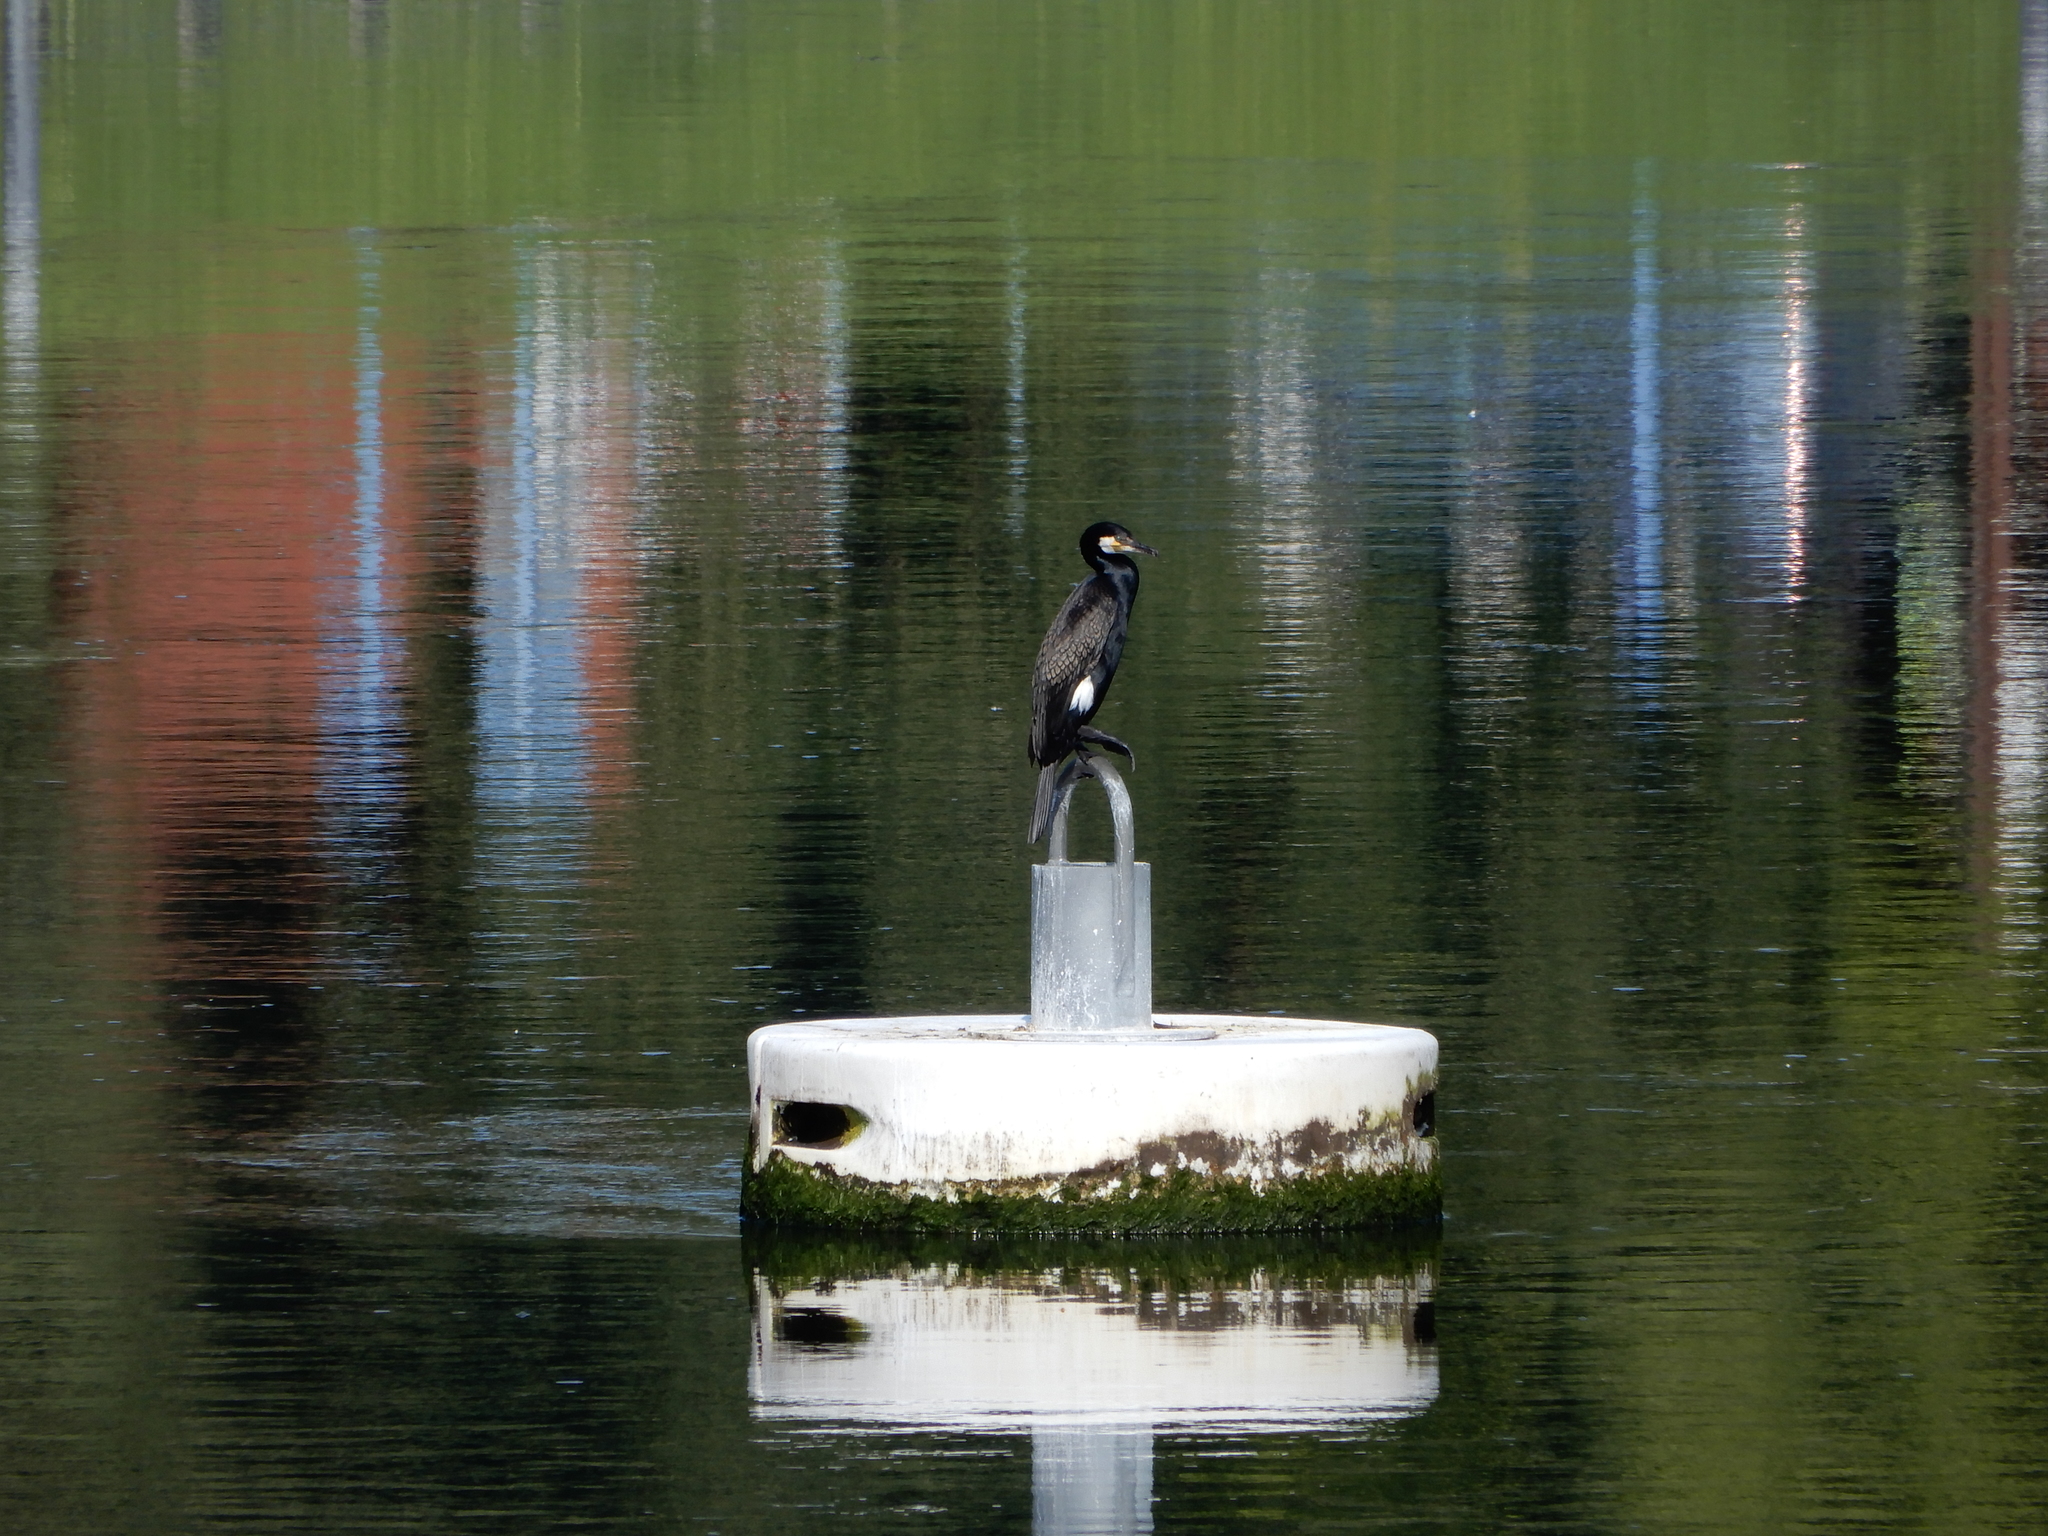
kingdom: Animalia
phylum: Chordata
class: Aves
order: Suliformes
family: Phalacrocoracidae
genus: Phalacrocorax
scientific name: Phalacrocorax carbo
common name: Great cormorant
